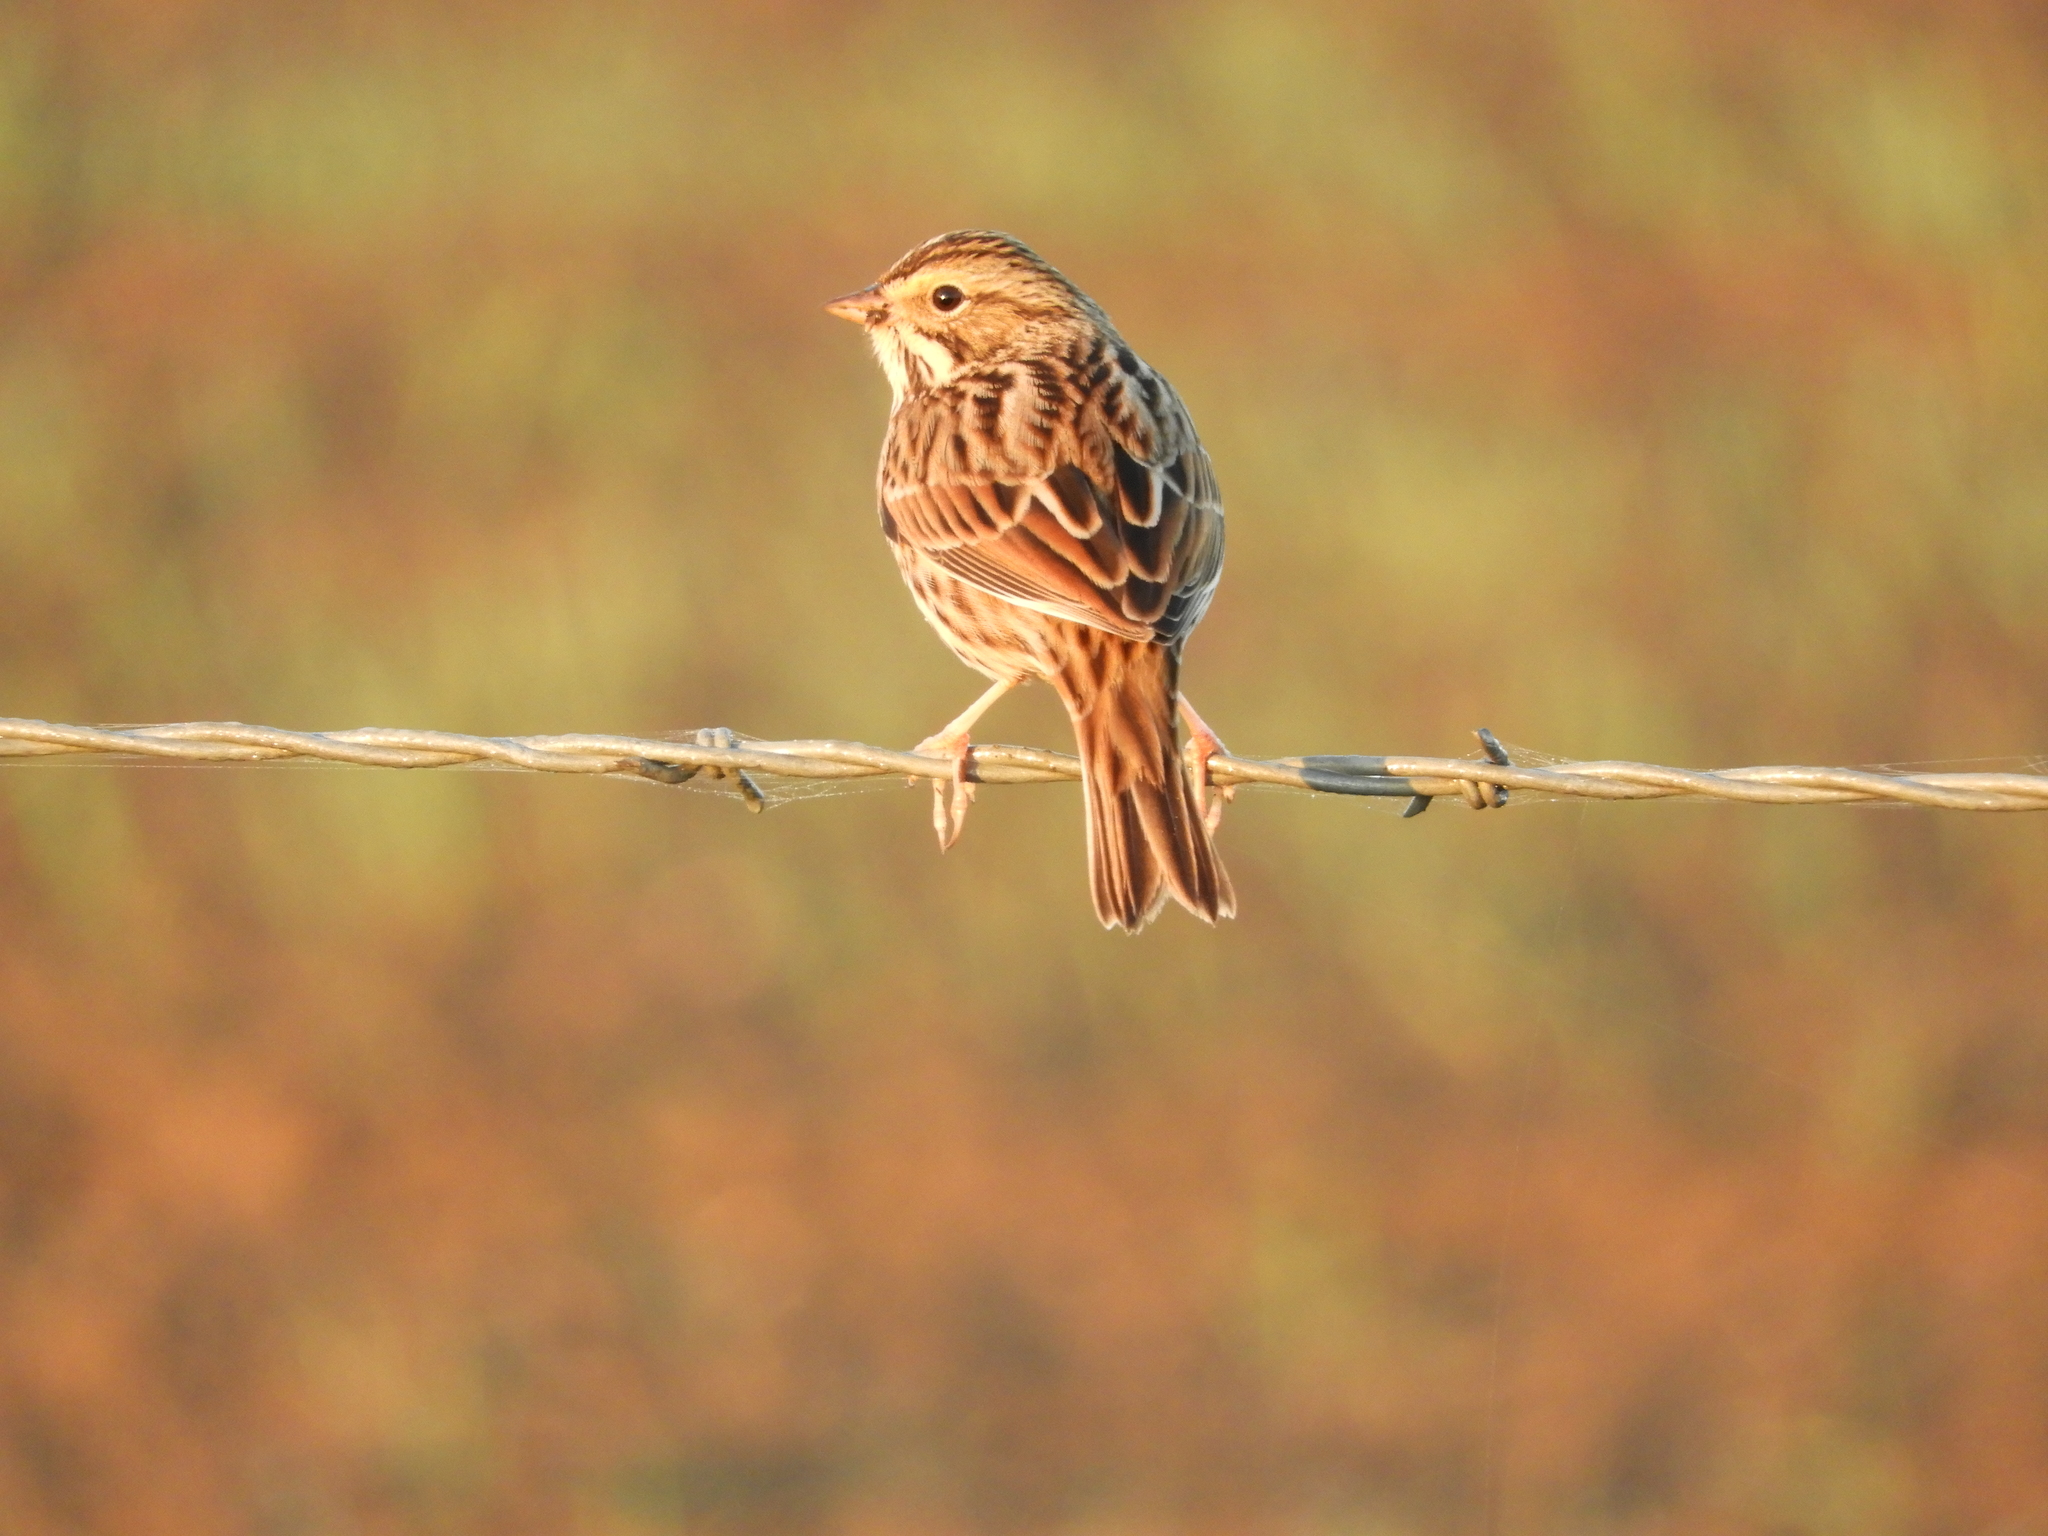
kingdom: Animalia
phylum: Chordata
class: Aves
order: Passeriformes
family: Passerellidae
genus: Passerculus
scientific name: Passerculus sandwichensis
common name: Savannah sparrow
